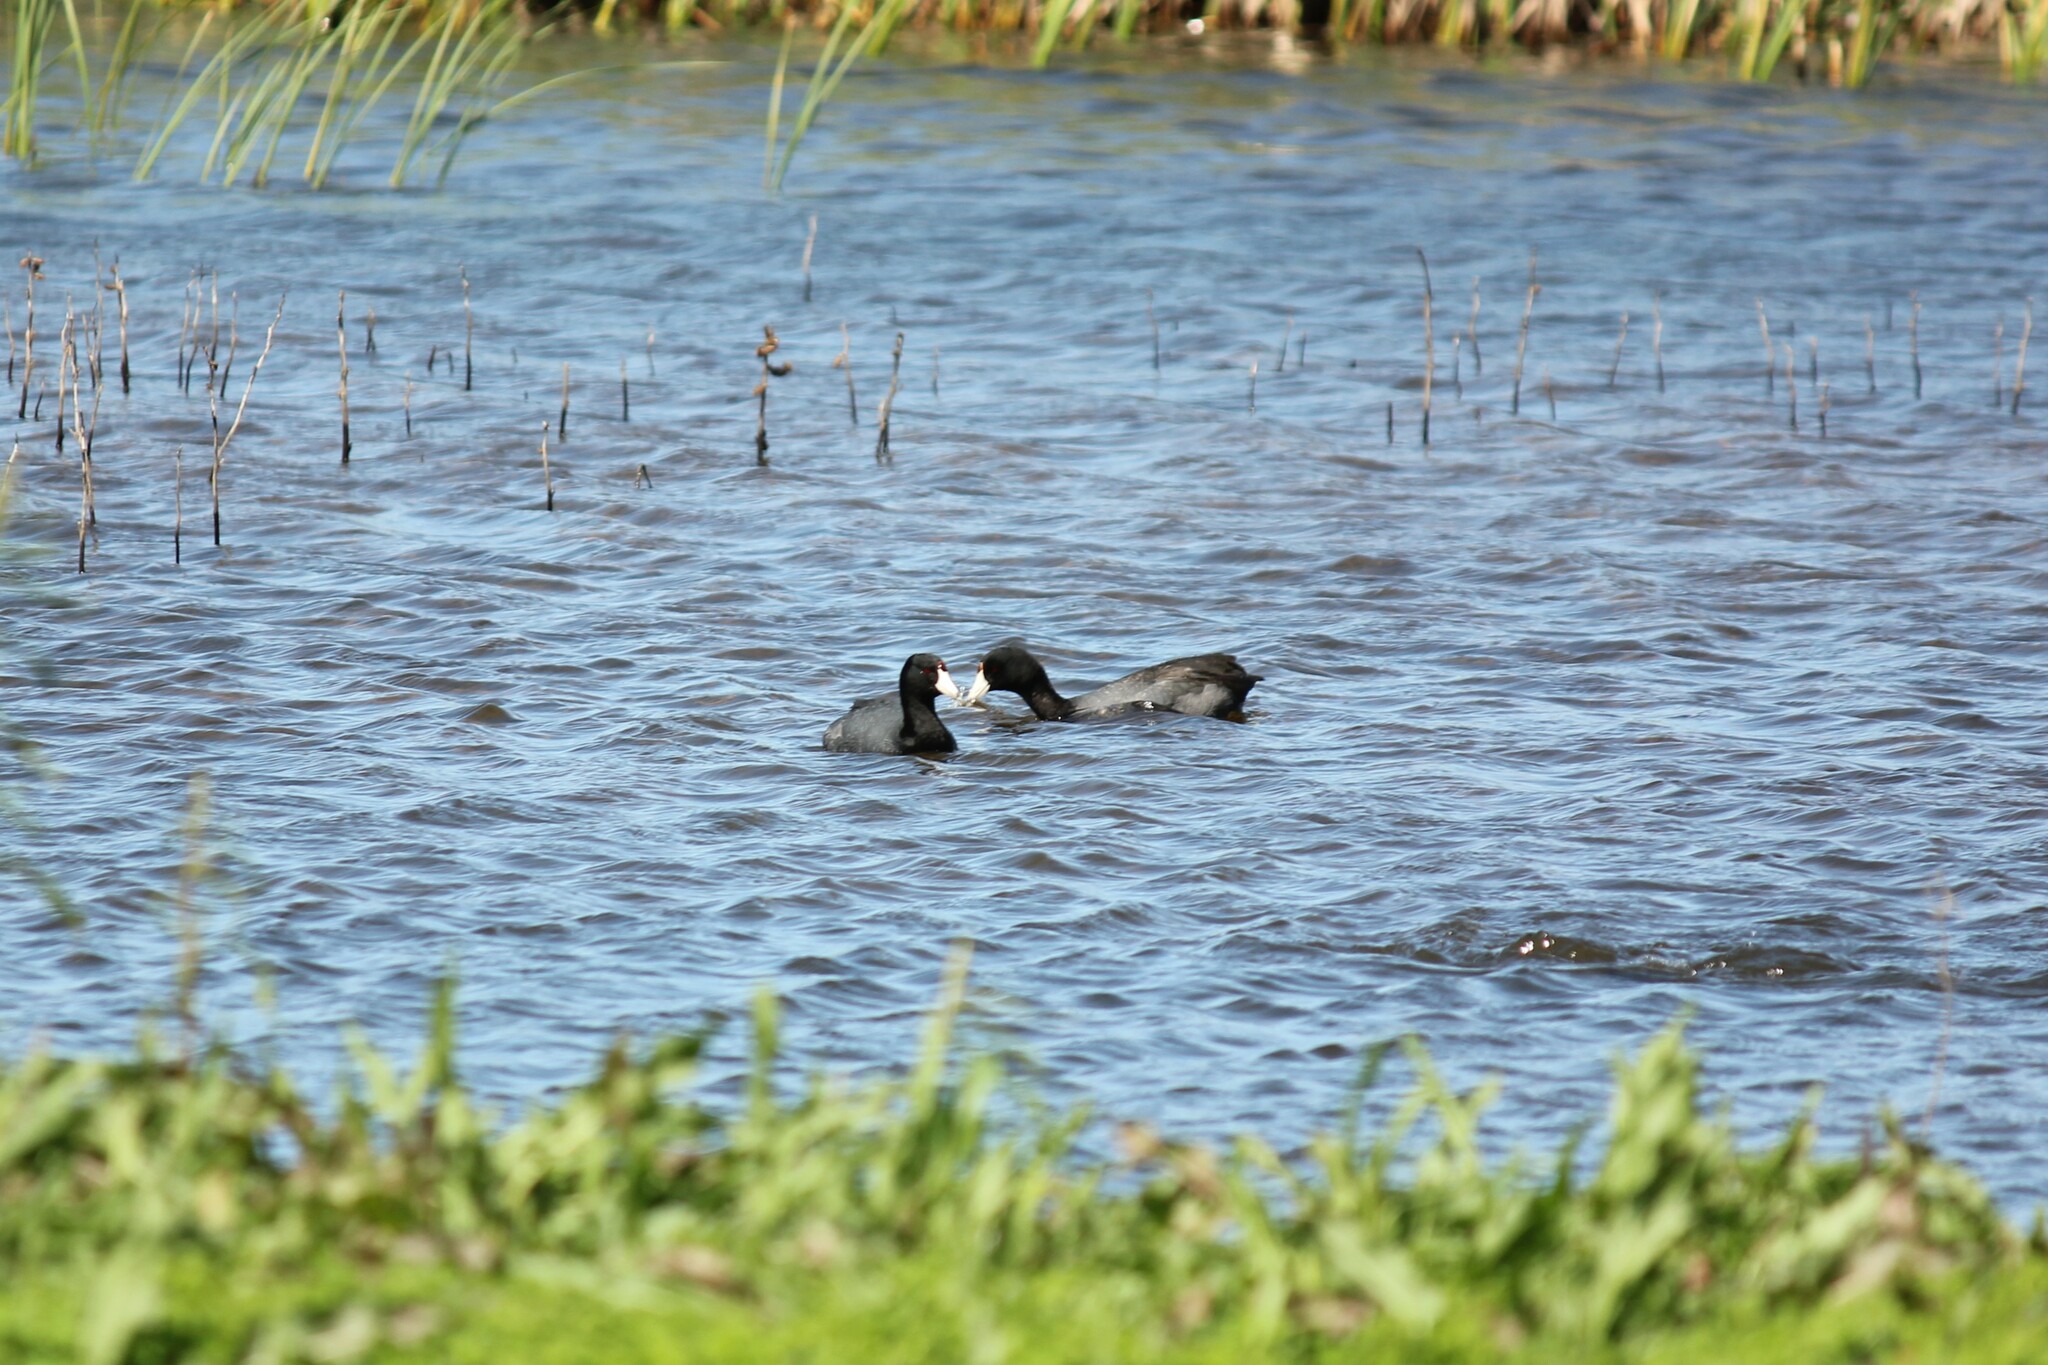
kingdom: Animalia
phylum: Chordata
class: Aves
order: Gruiformes
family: Rallidae
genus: Fulica
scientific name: Fulica americana
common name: American coot
